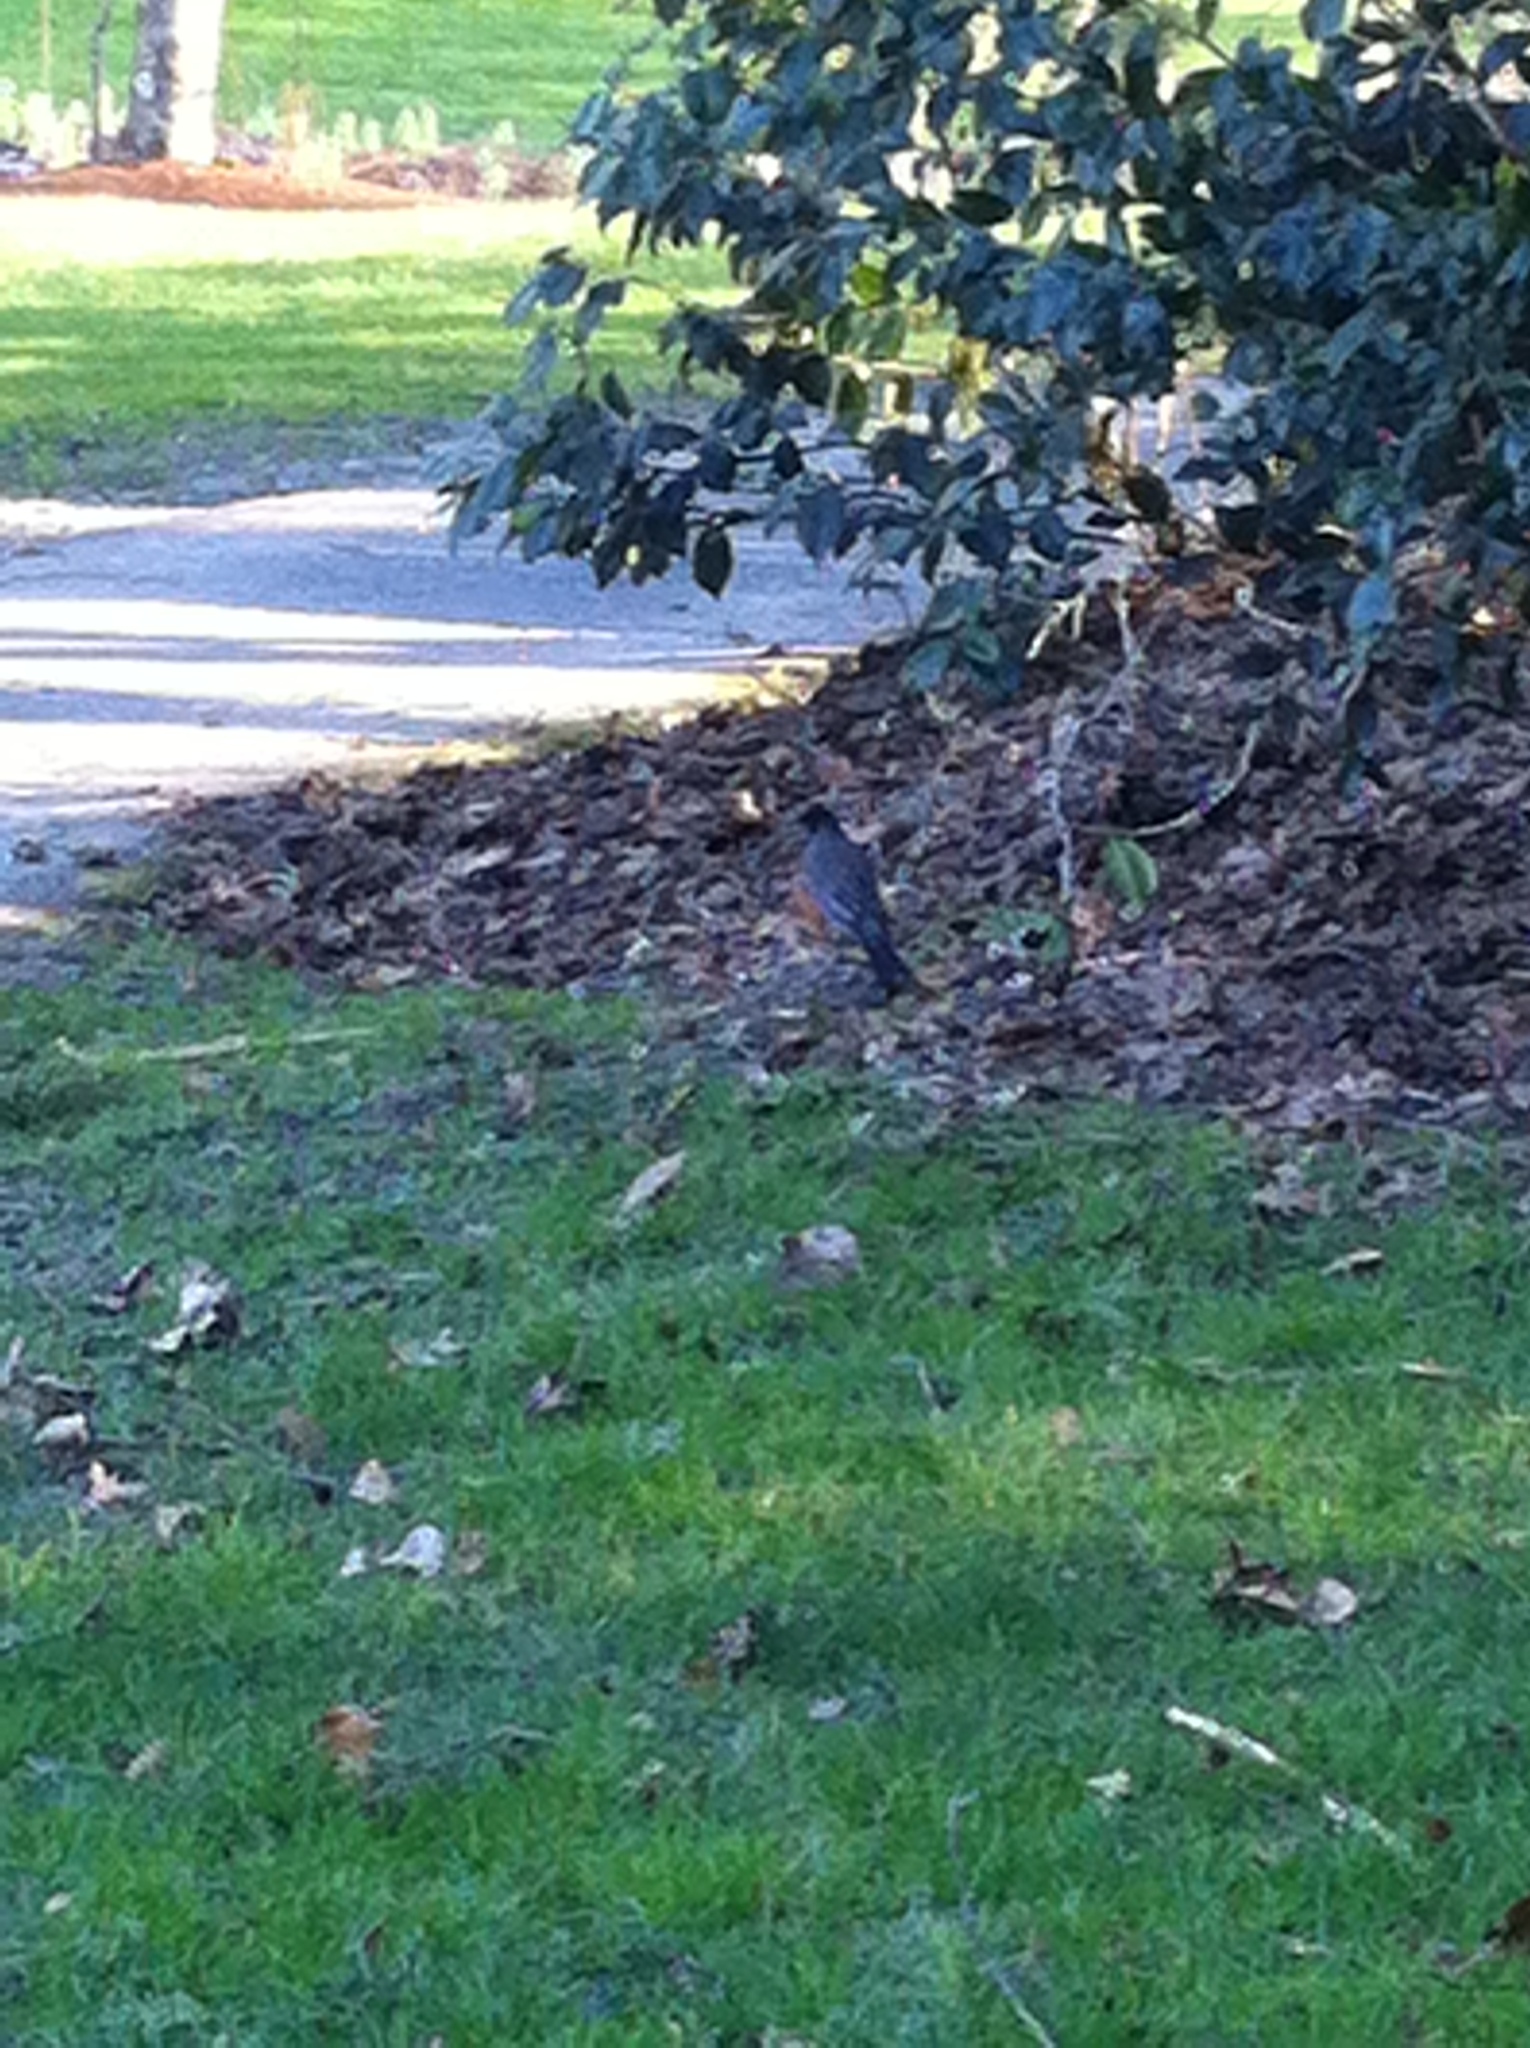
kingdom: Animalia
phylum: Chordata
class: Aves
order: Passeriformes
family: Turdidae
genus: Turdus
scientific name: Turdus migratorius
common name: American robin
